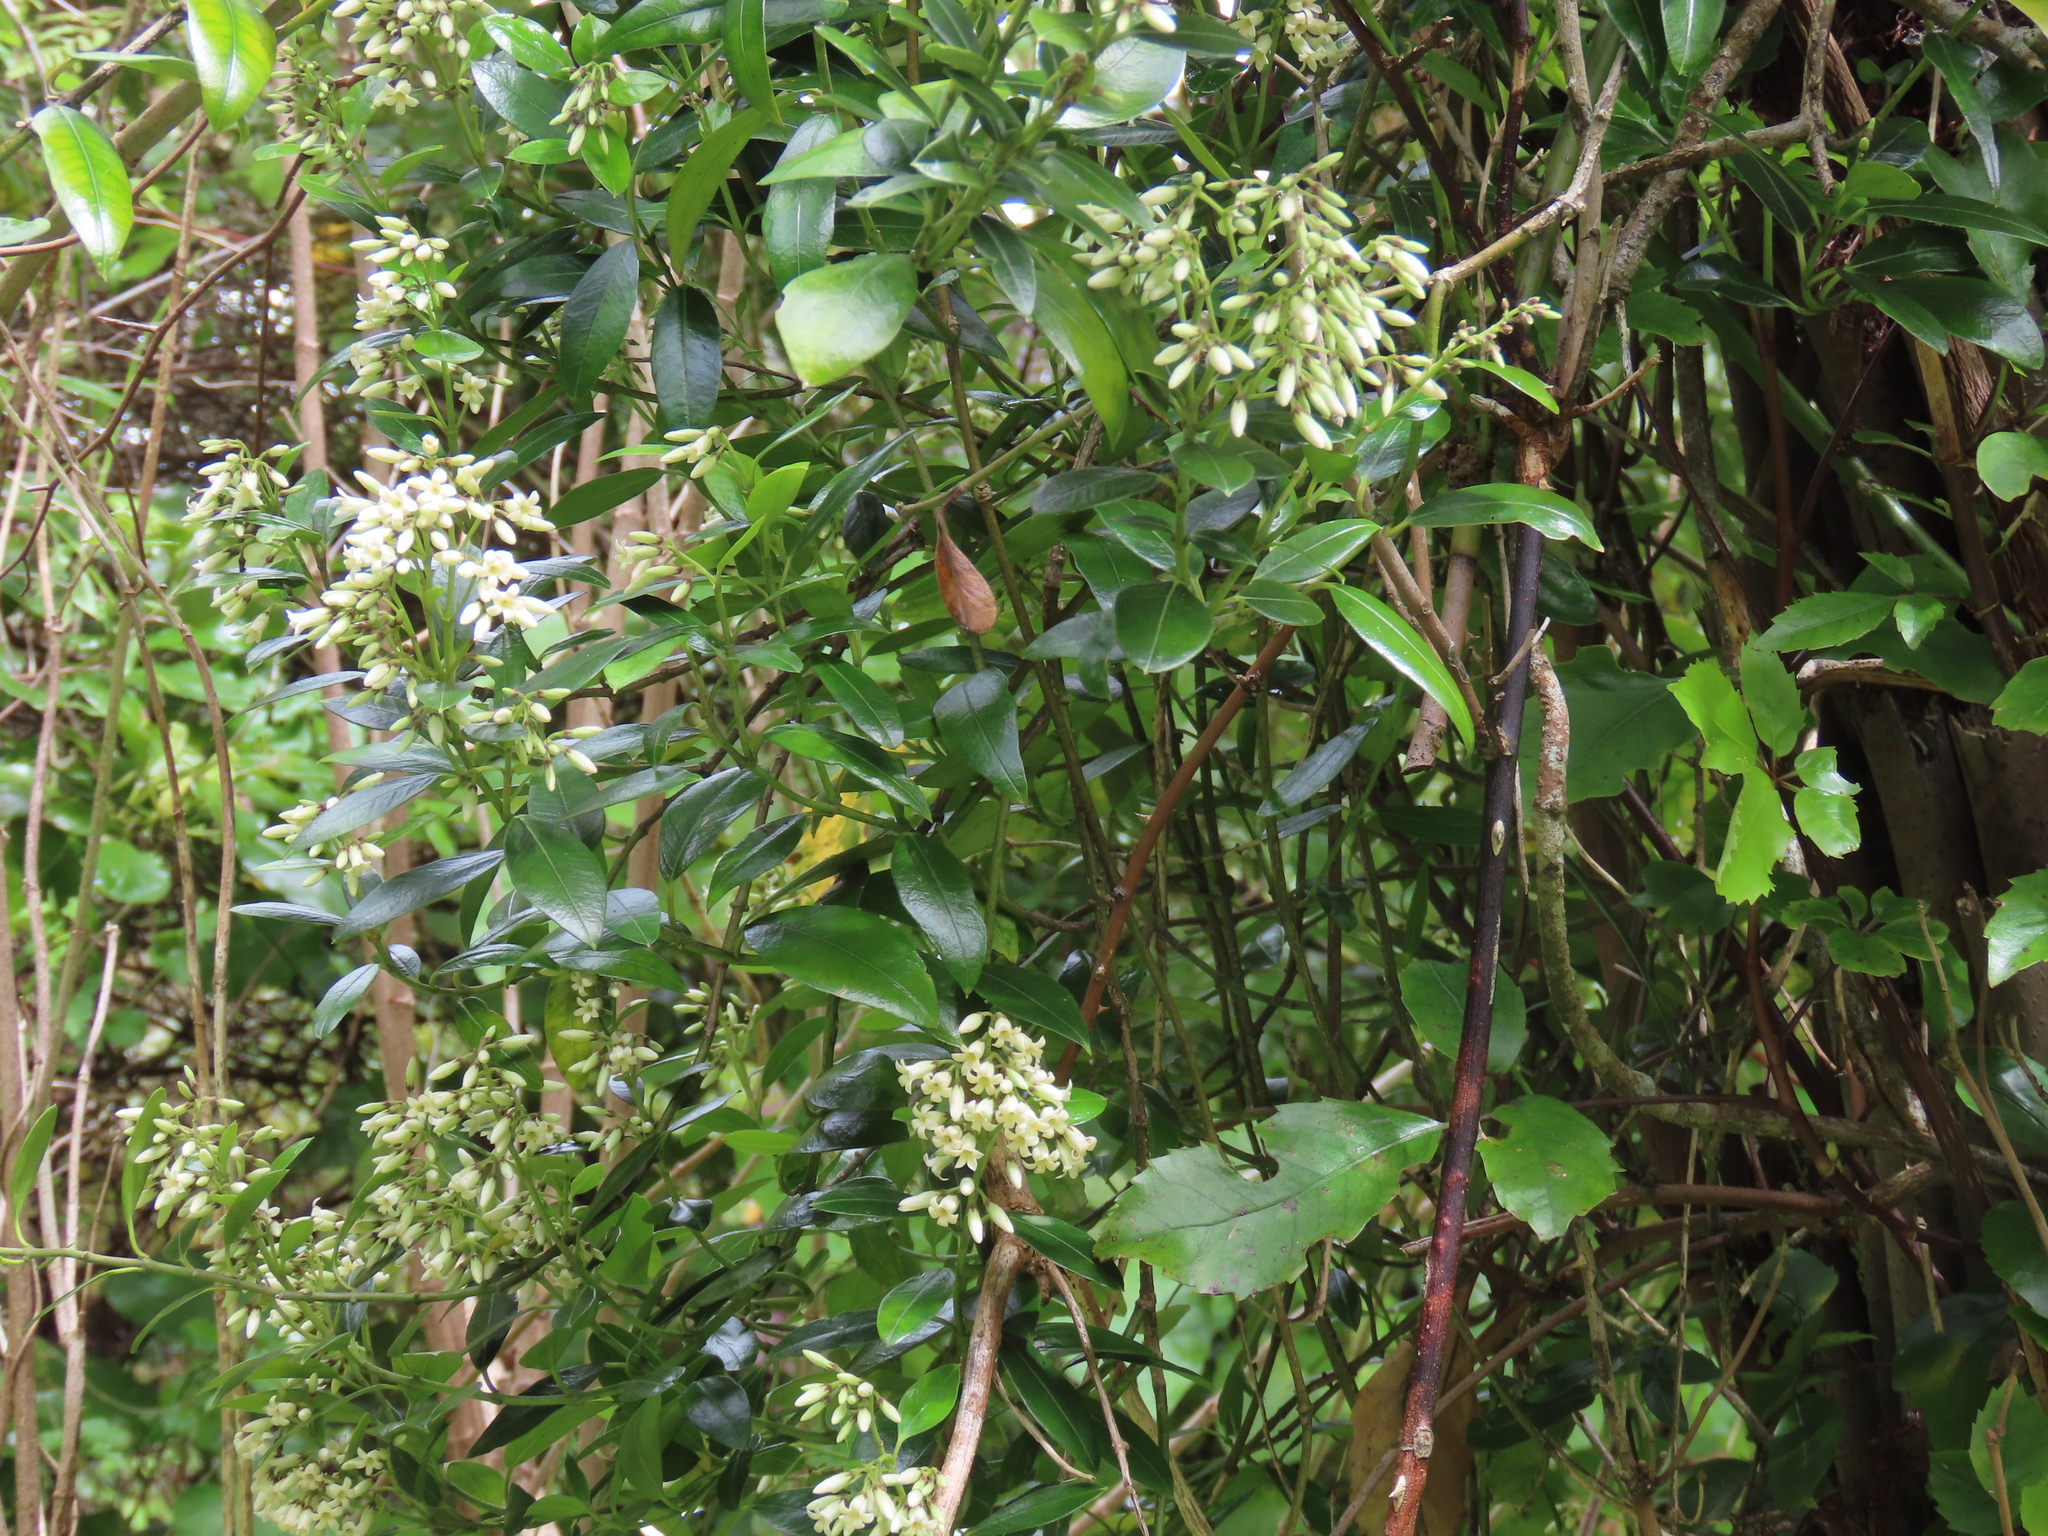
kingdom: Plantae
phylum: Tracheophyta
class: Magnoliopsida
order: Gentianales
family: Apocynaceae
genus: Parsonsia
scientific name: Parsonsia heterophylla
